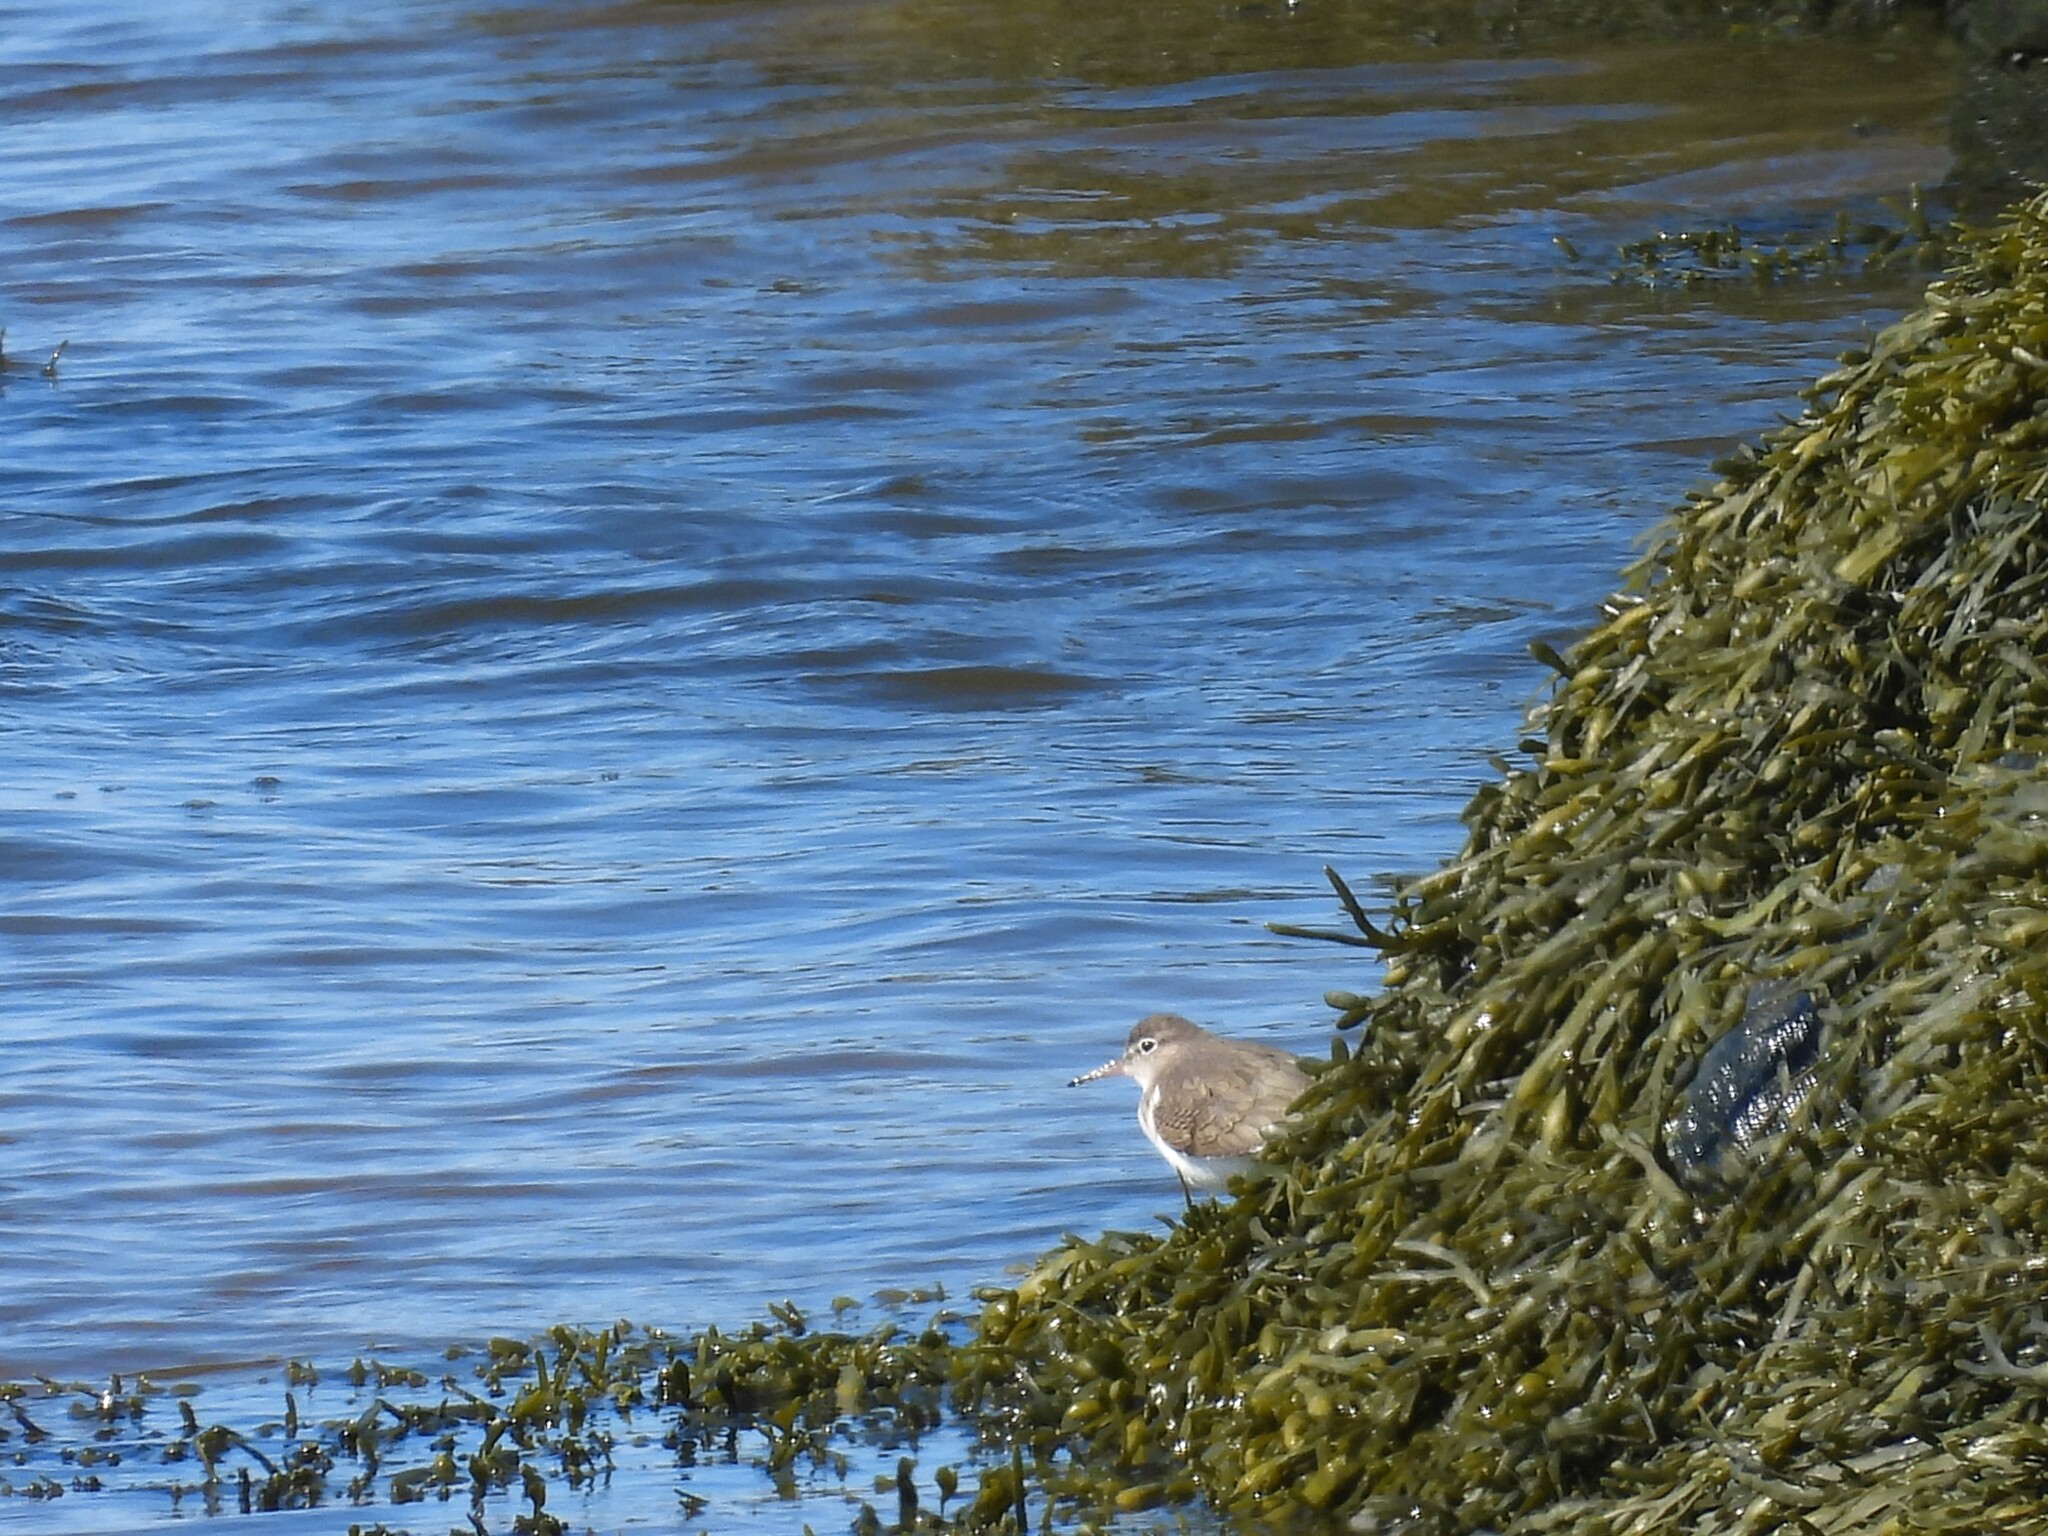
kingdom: Animalia
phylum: Chordata
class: Aves
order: Charadriiformes
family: Scolopacidae
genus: Actitis
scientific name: Actitis macularius
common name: Spotted sandpiper
